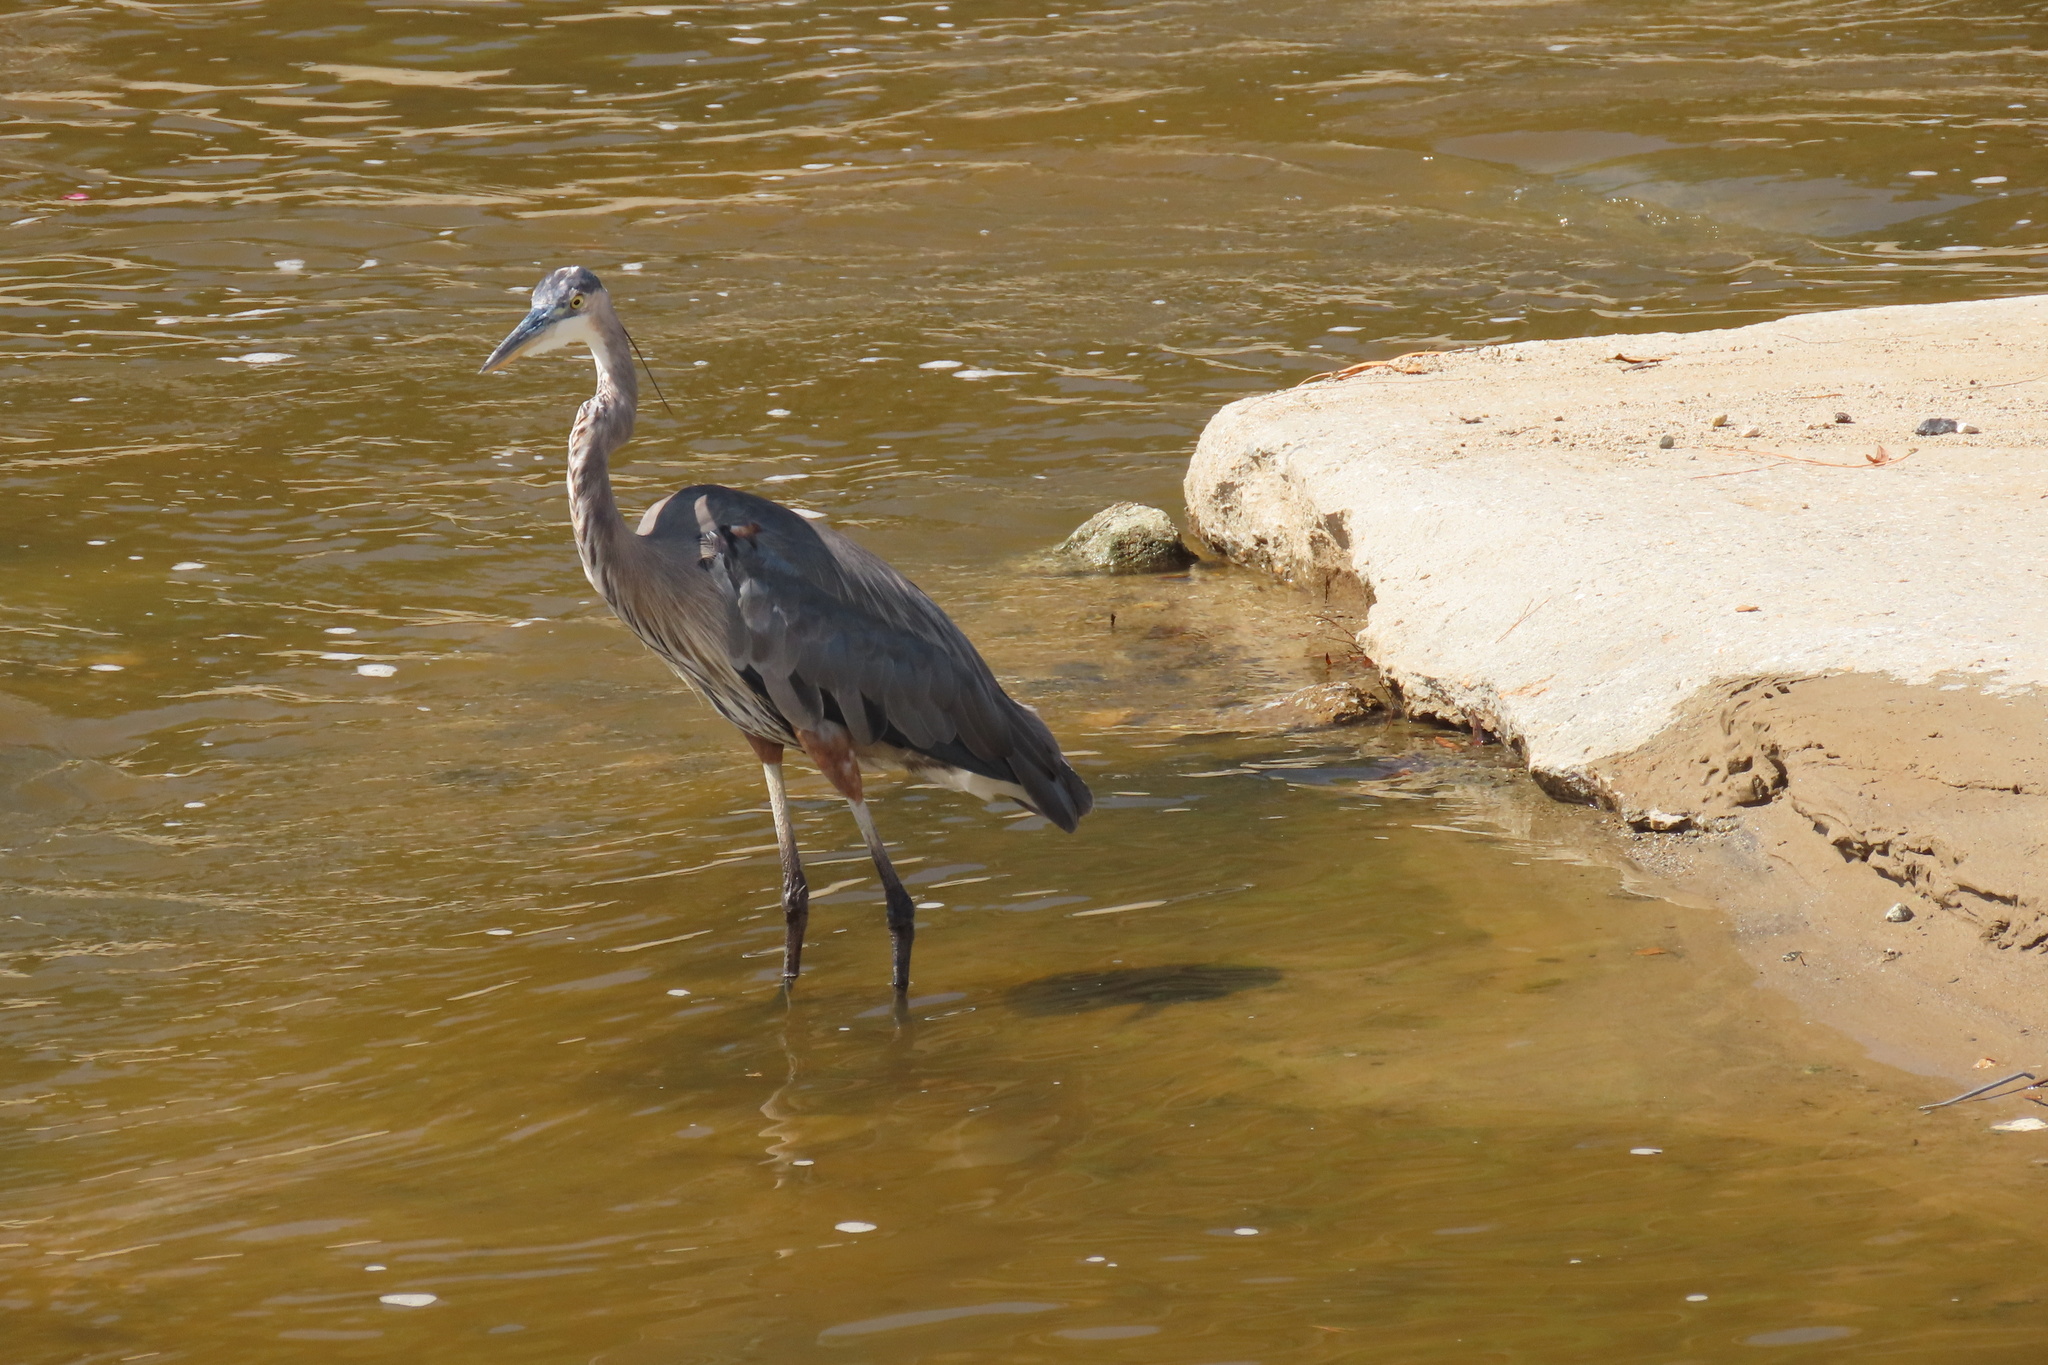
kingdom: Animalia
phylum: Chordata
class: Aves
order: Pelecaniformes
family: Ardeidae
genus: Ardea
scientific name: Ardea herodias
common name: Great blue heron
